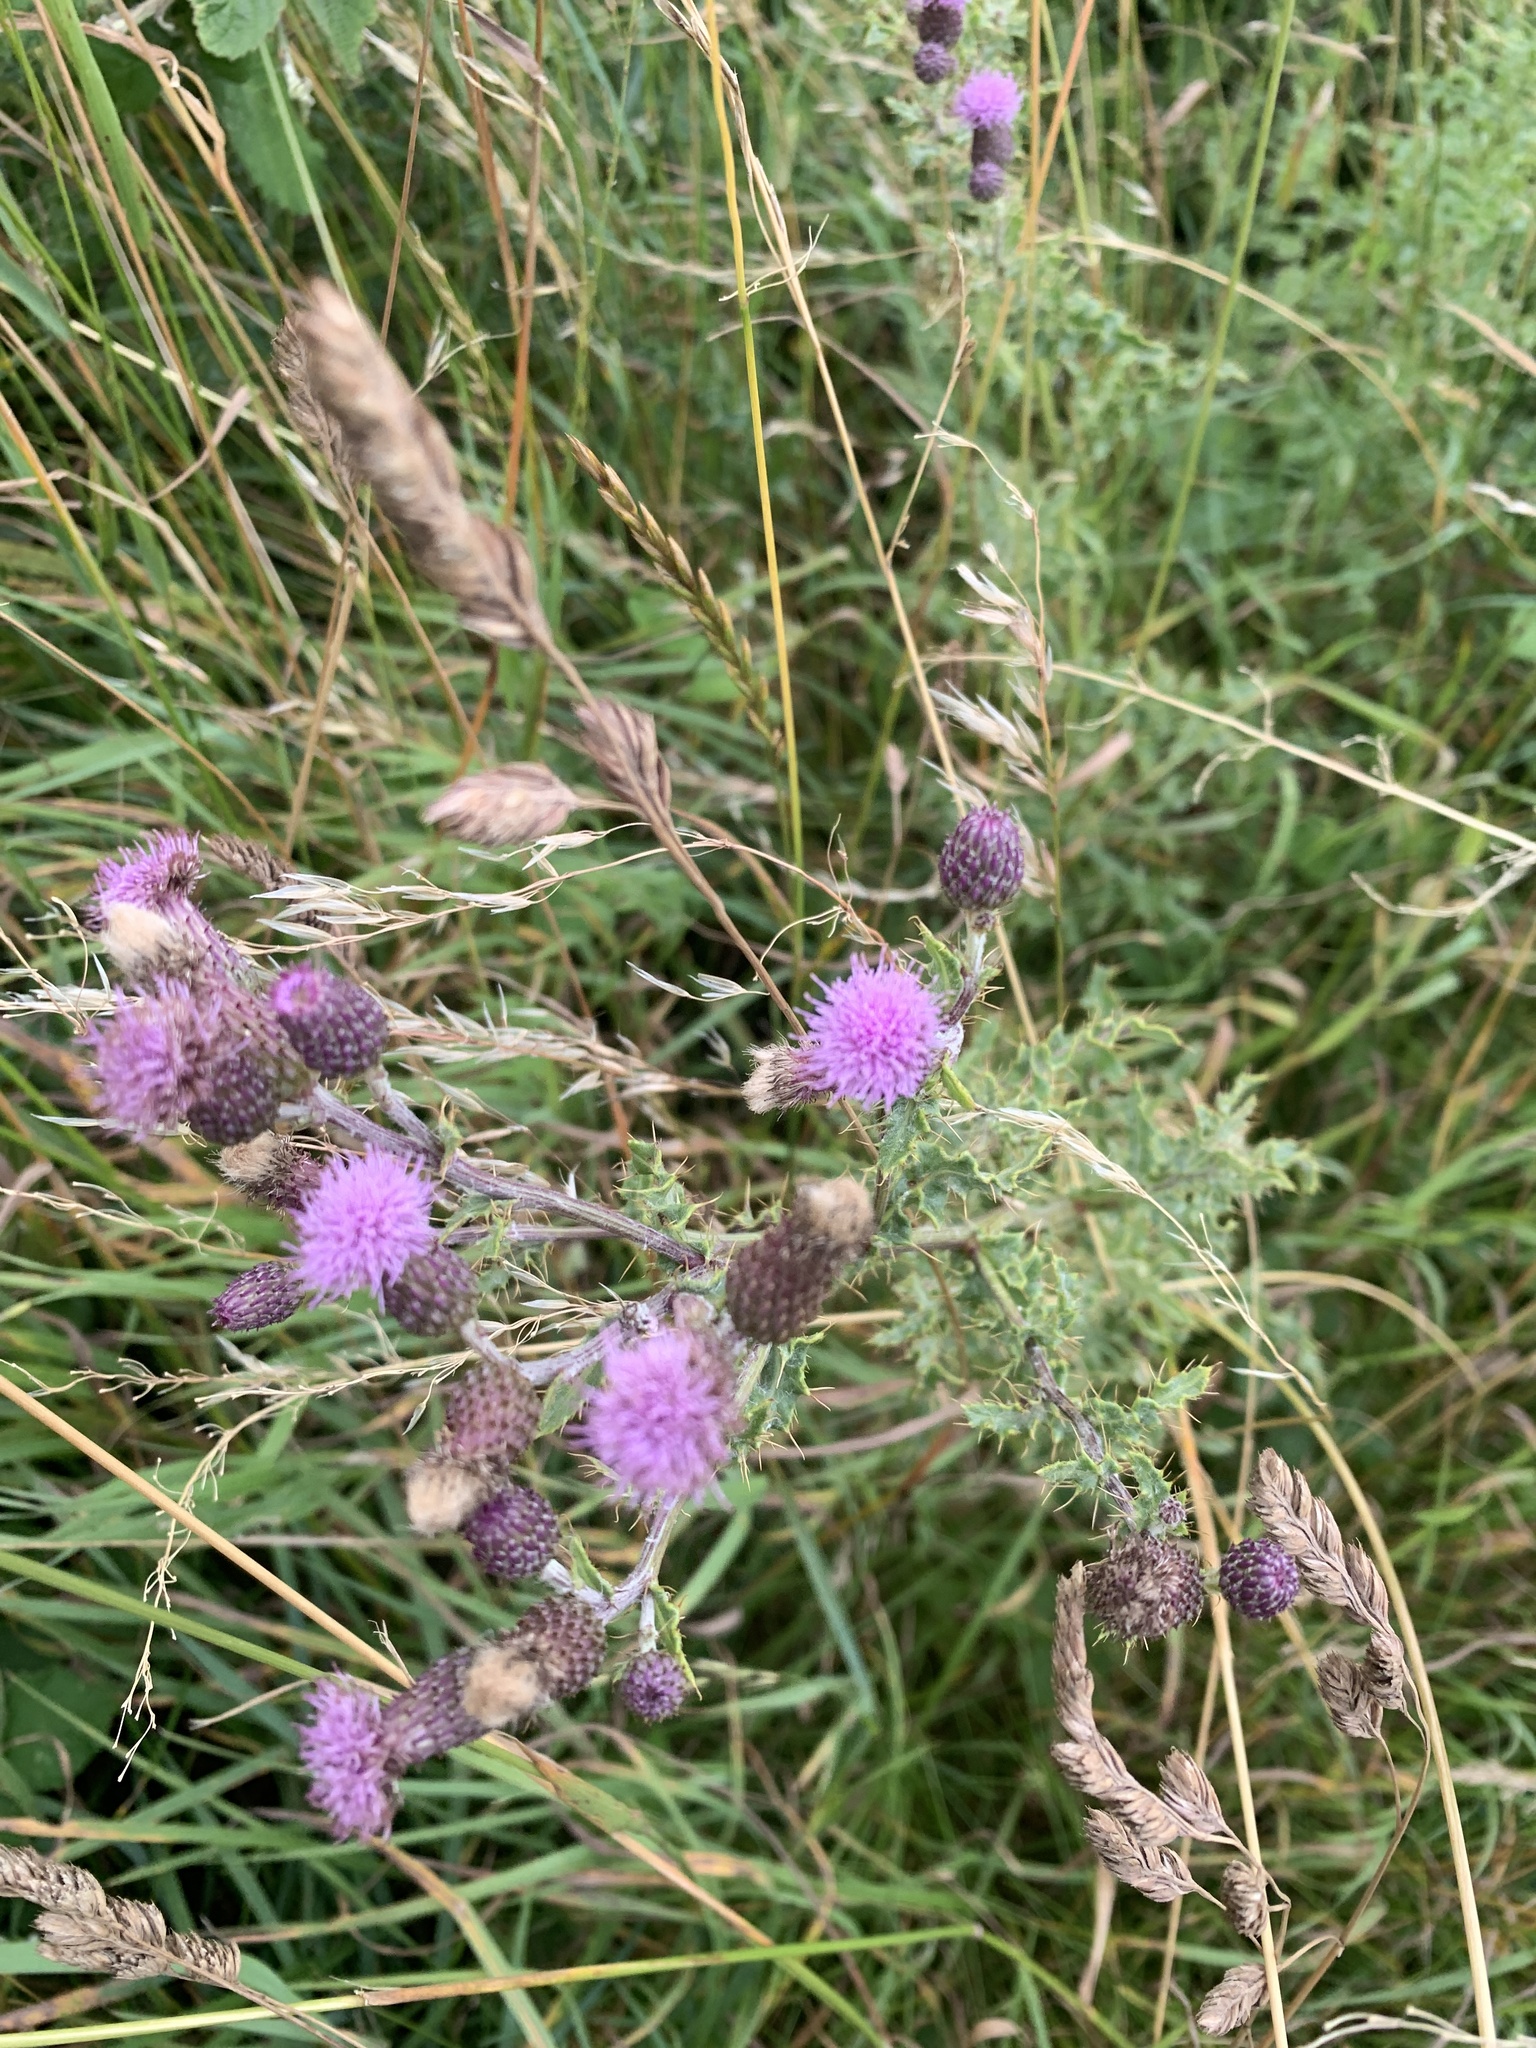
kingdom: Plantae
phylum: Tracheophyta
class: Magnoliopsida
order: Asterales
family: Asteraceae
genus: Cirsium
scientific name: Cirsium arvense
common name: Creeping thistle
